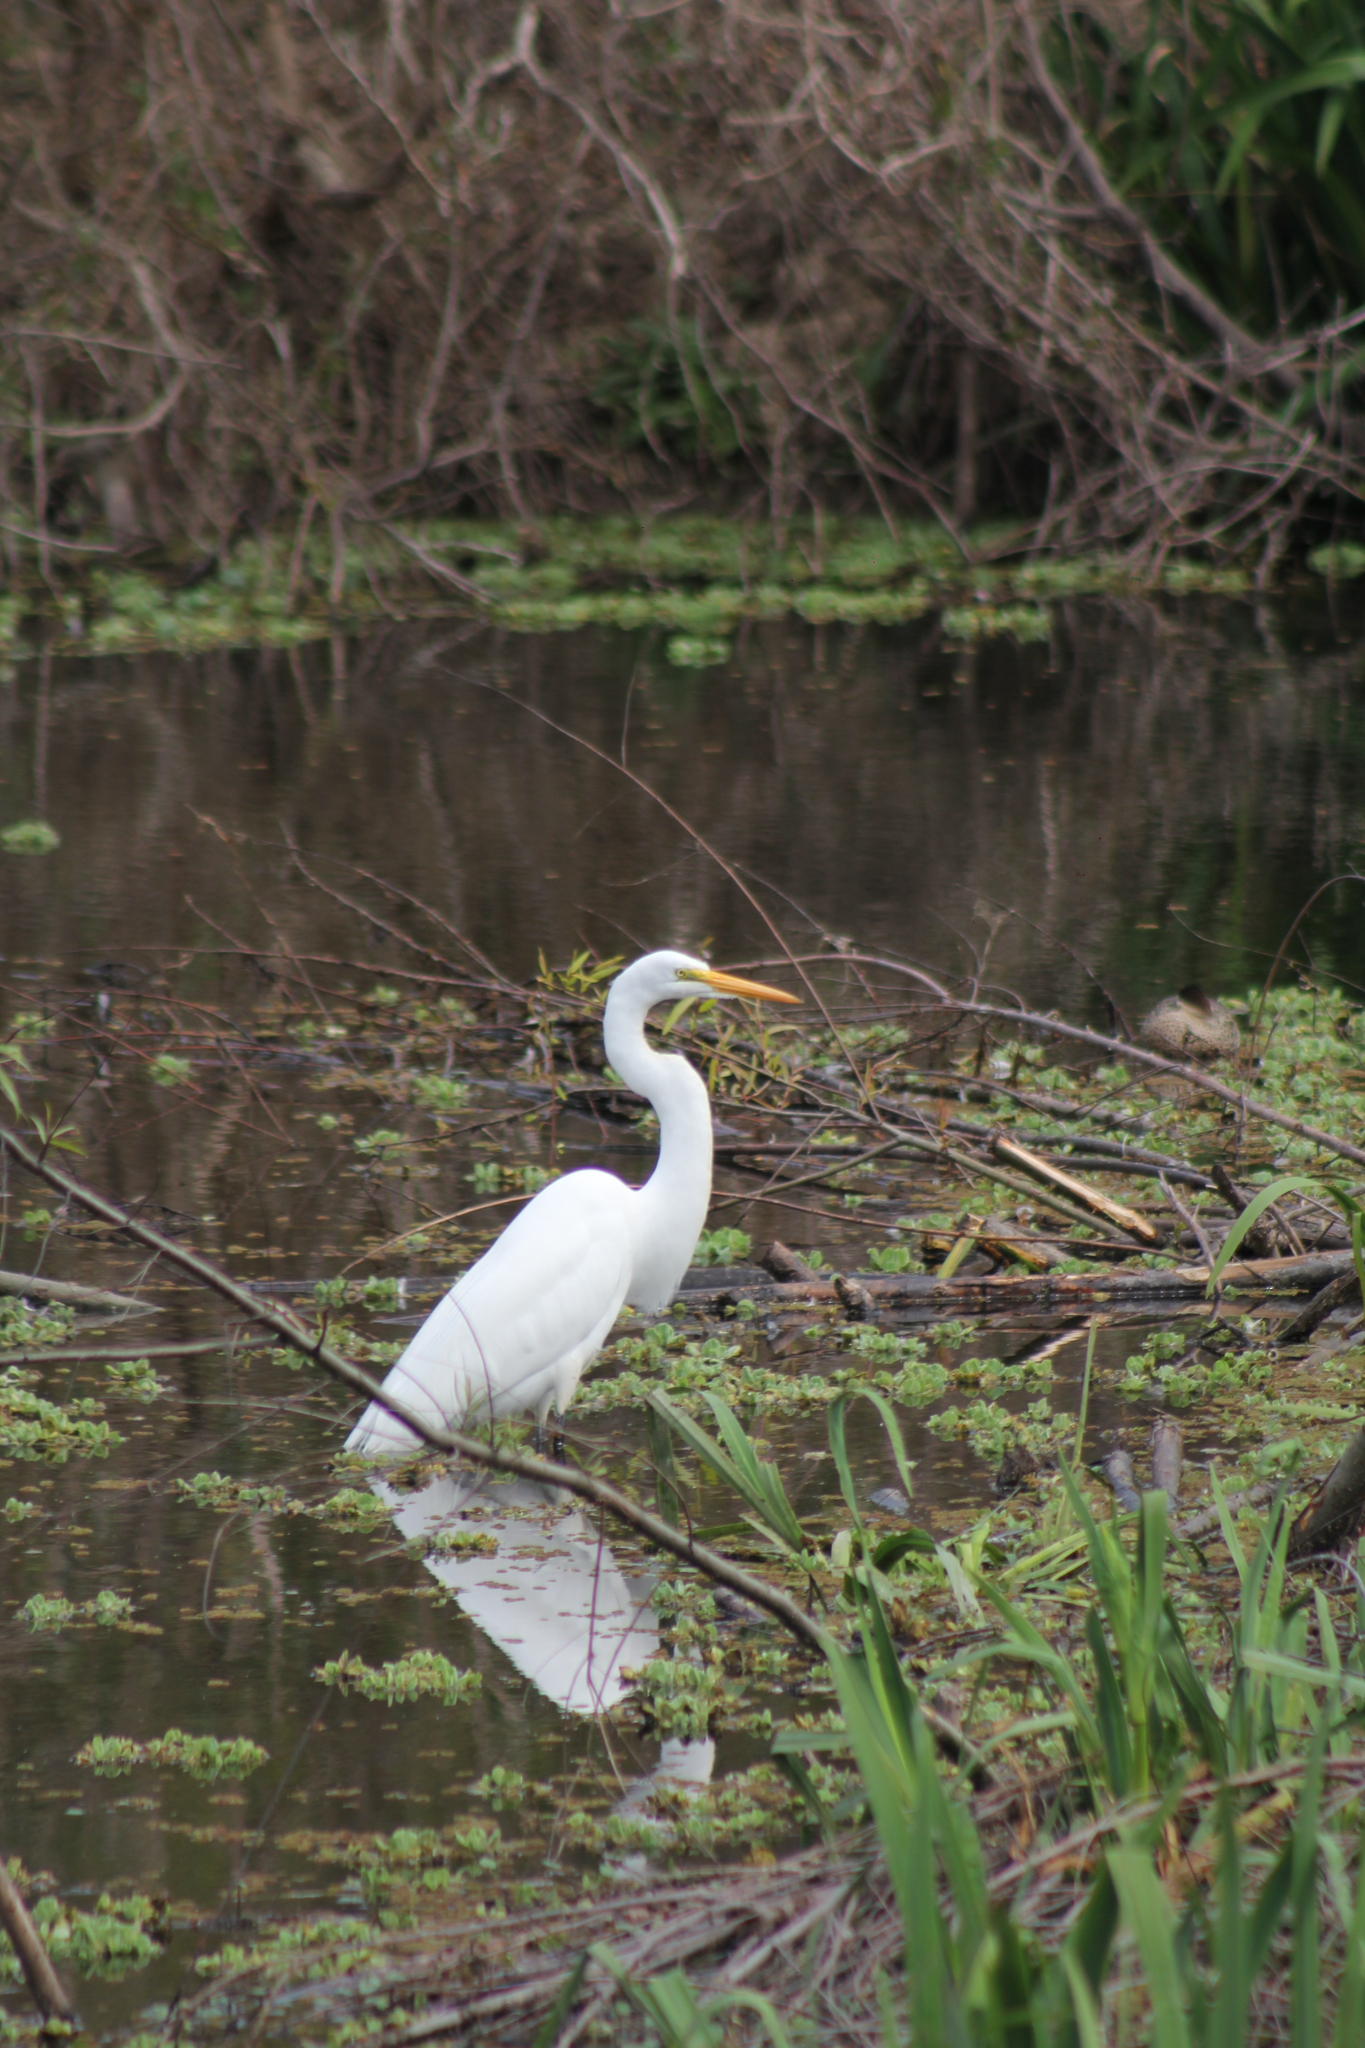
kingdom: Animalia
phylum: Chordata
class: Aves
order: Pelecaniformes
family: Ardeidae
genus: Ardea
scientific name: Ardea alba
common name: Great egret
